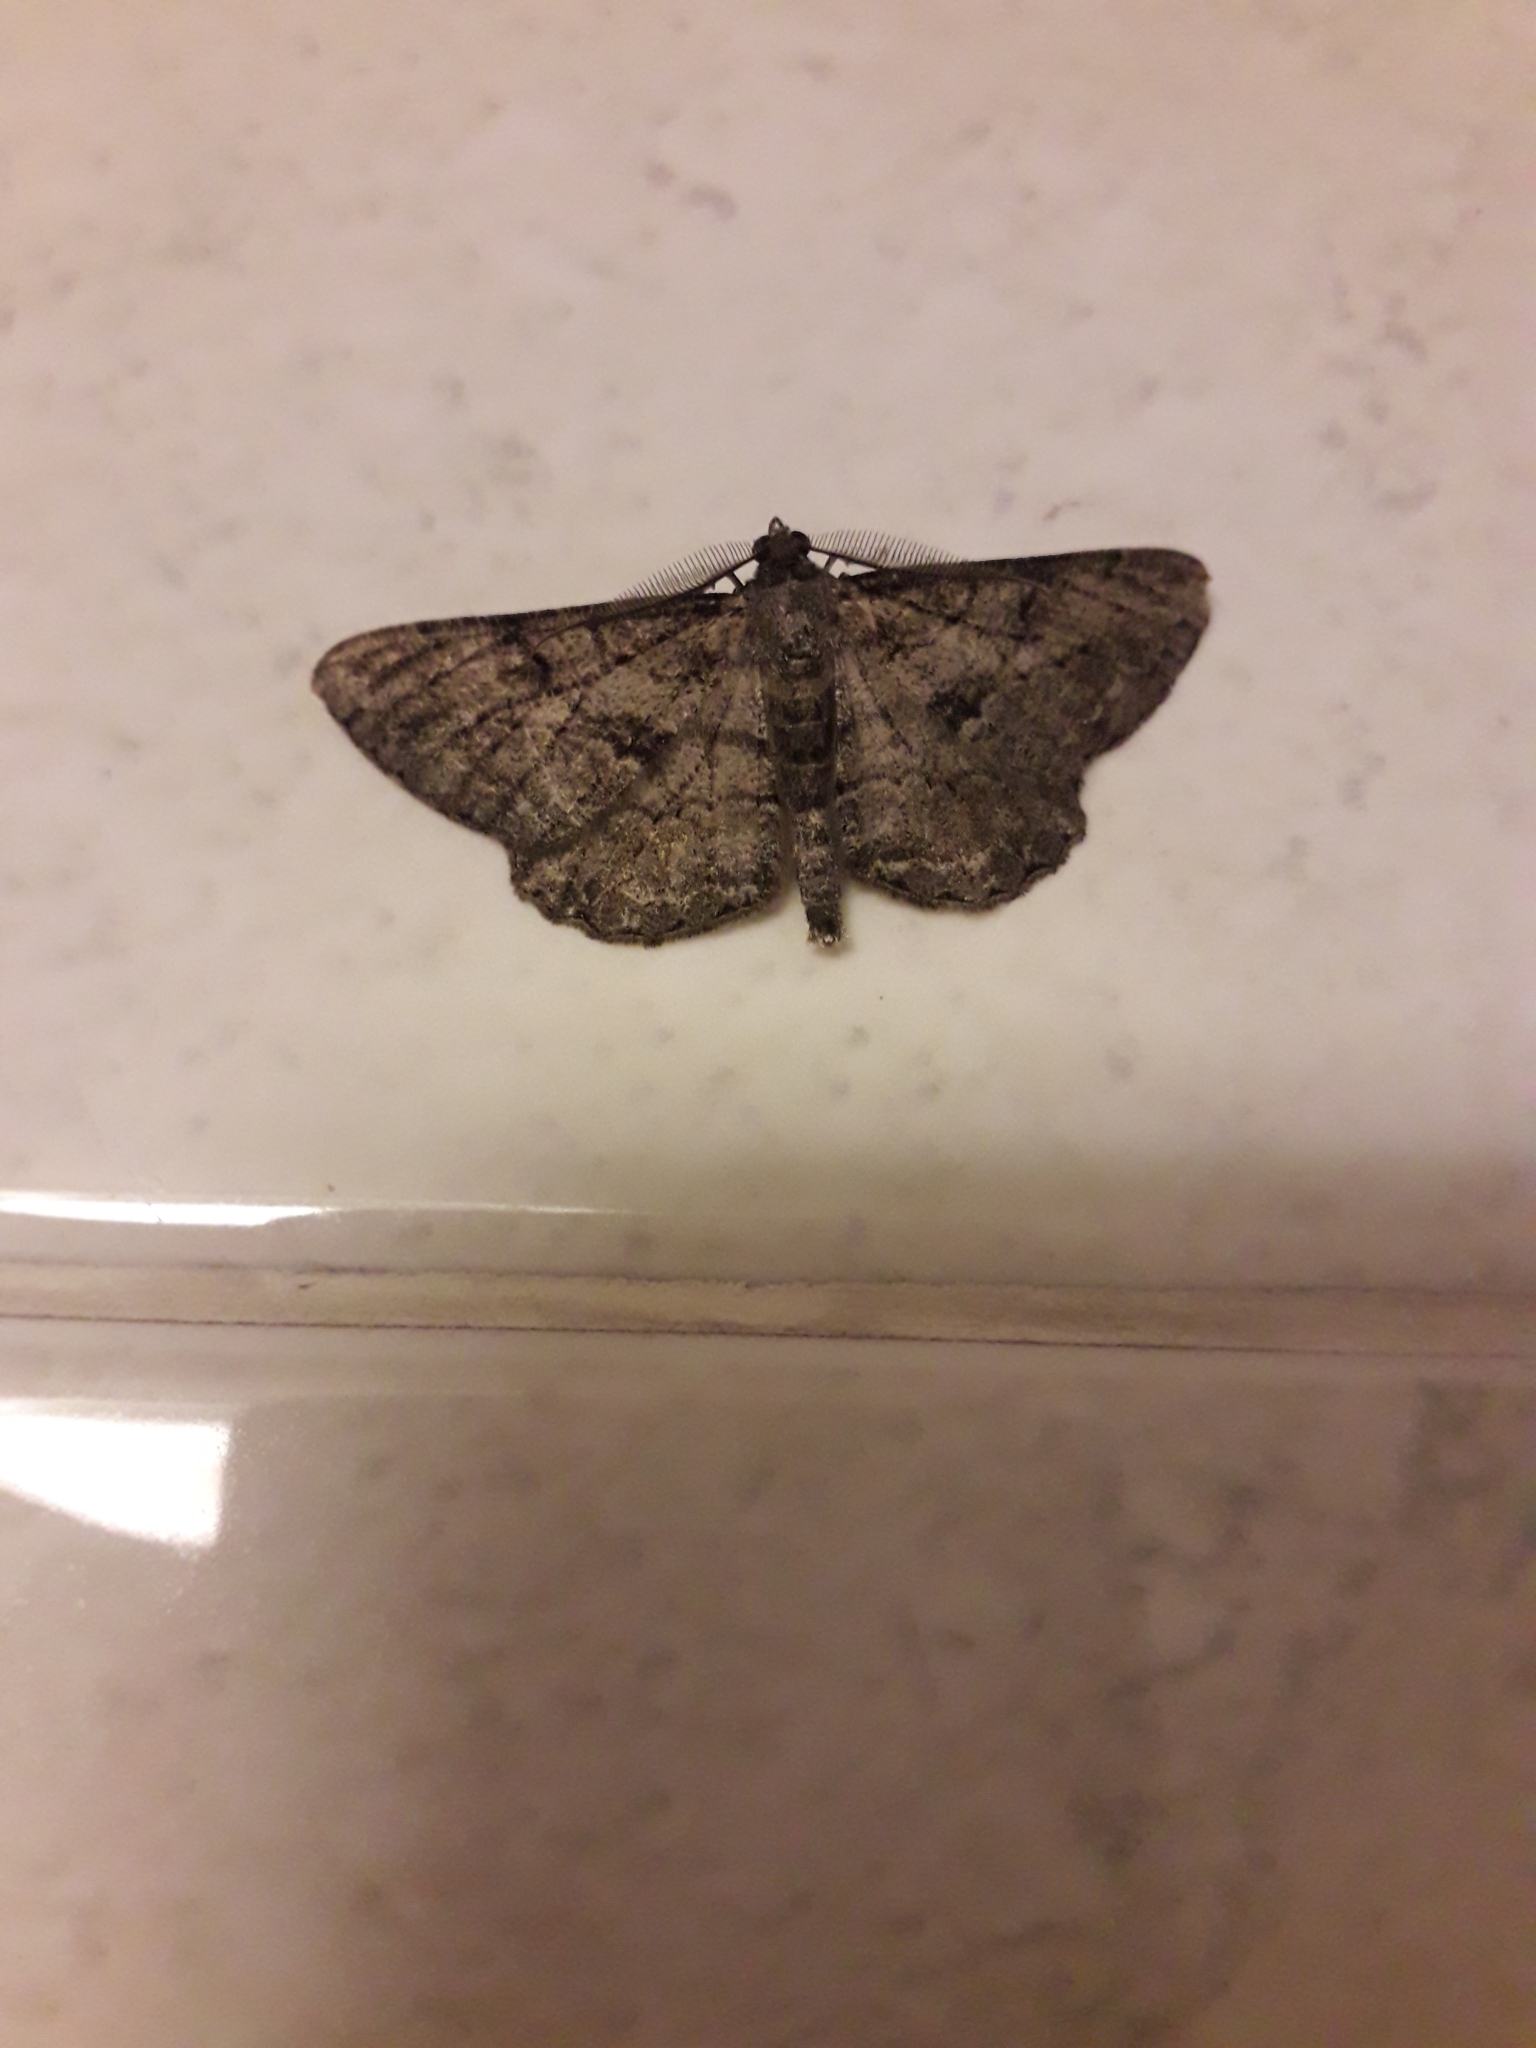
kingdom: Animalia
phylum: Arthropoda
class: Insecta
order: Lepidoptera
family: Geometridae
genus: Peribatodes
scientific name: Peribatodes rhomboidaria
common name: Willow beauty
